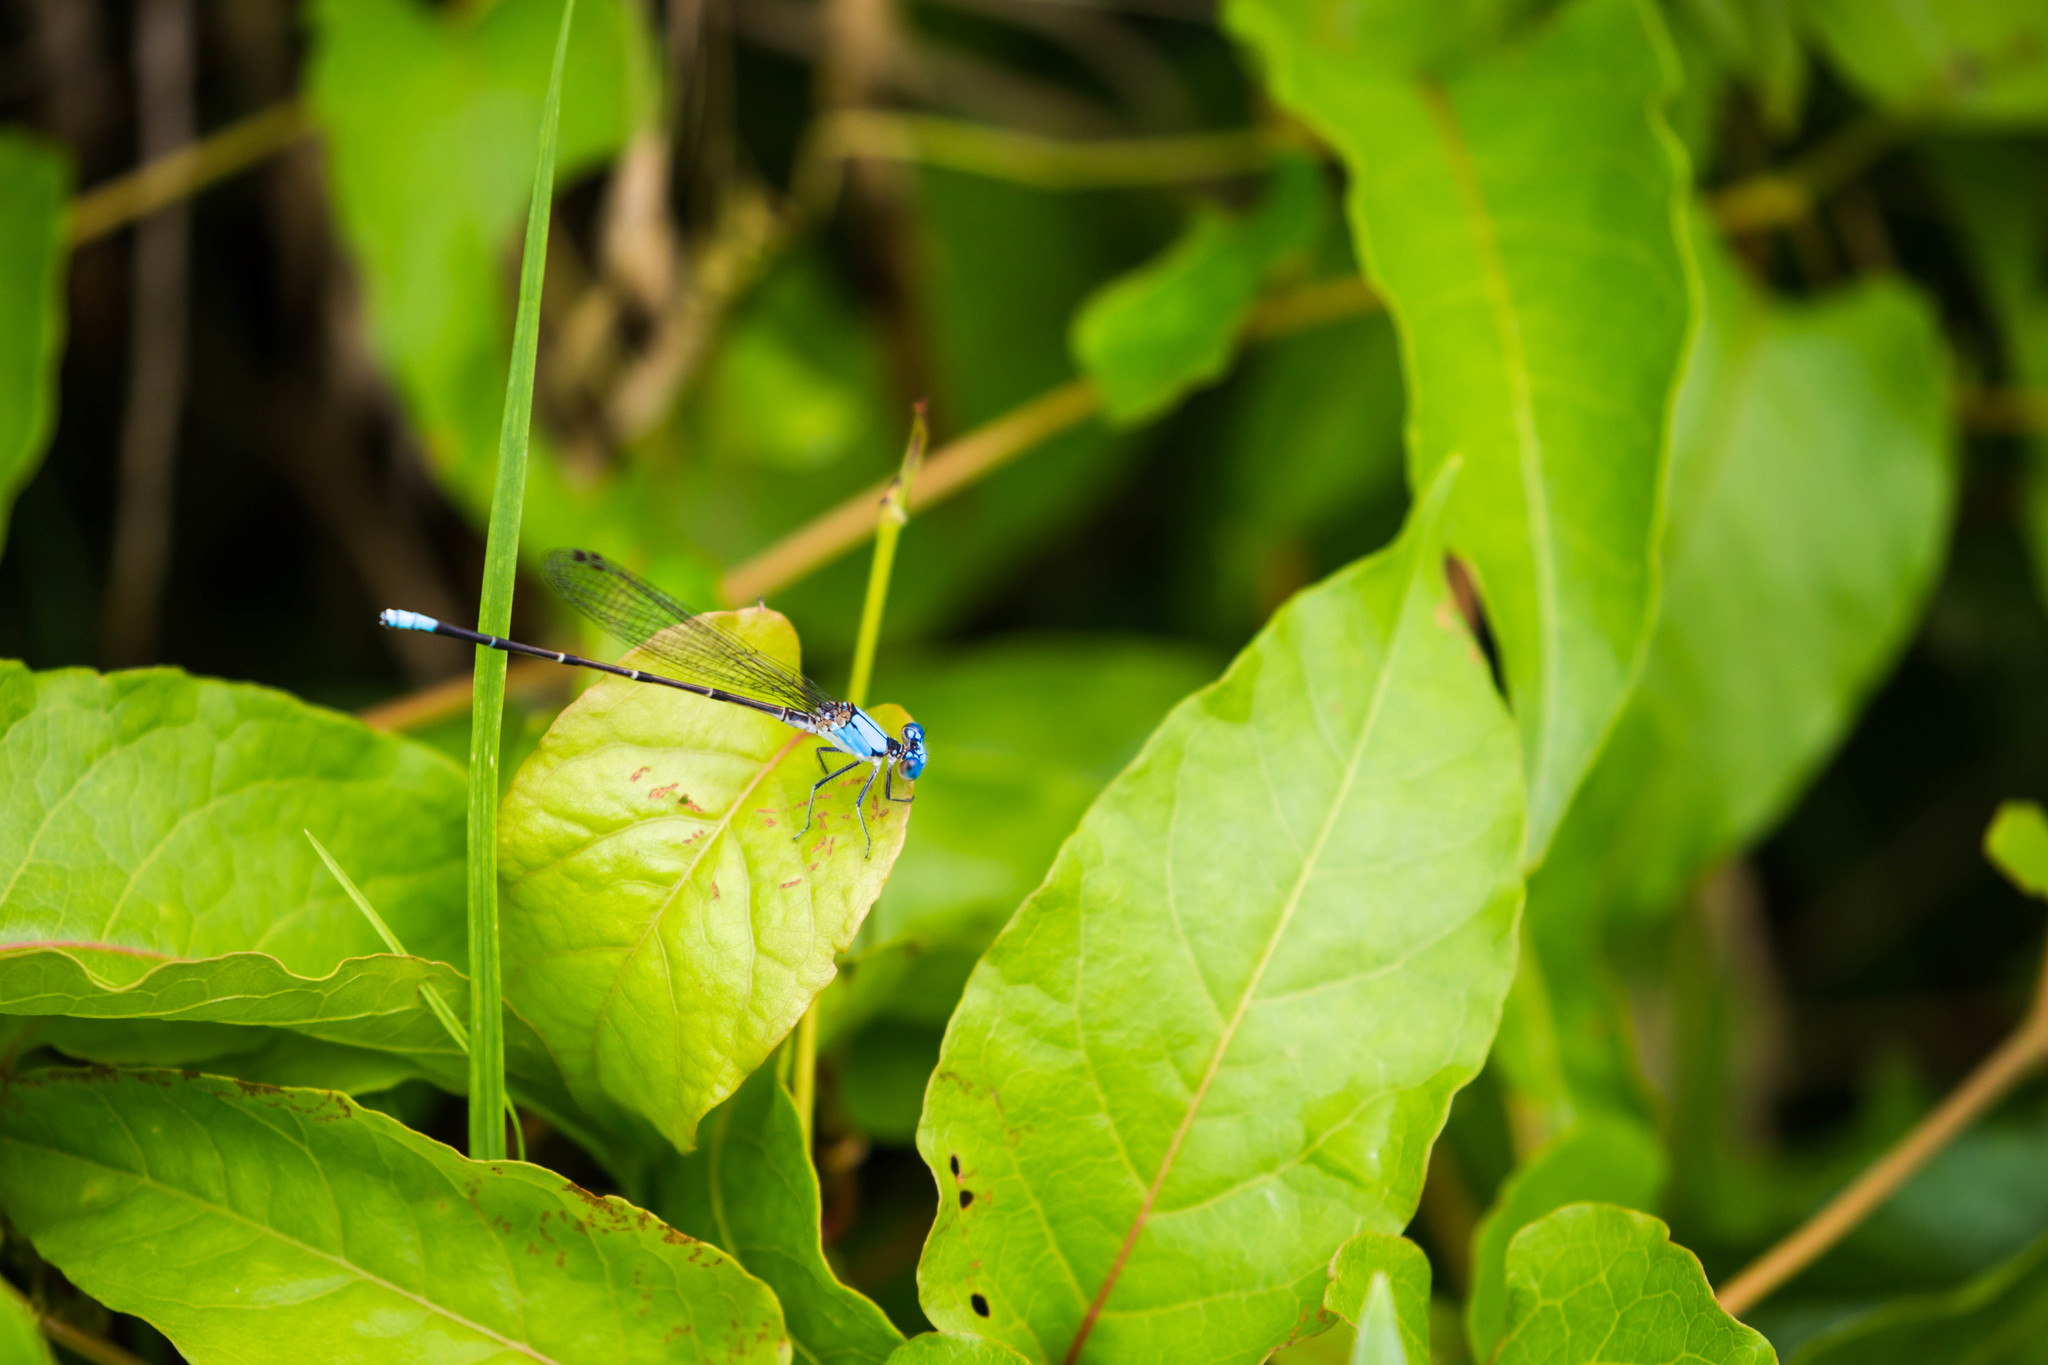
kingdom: Animalia
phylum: Arthropoda
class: Insecta
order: Odonata
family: Coenagrionidae
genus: Argia
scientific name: Argia apicalis
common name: Blue-fronted dancer
